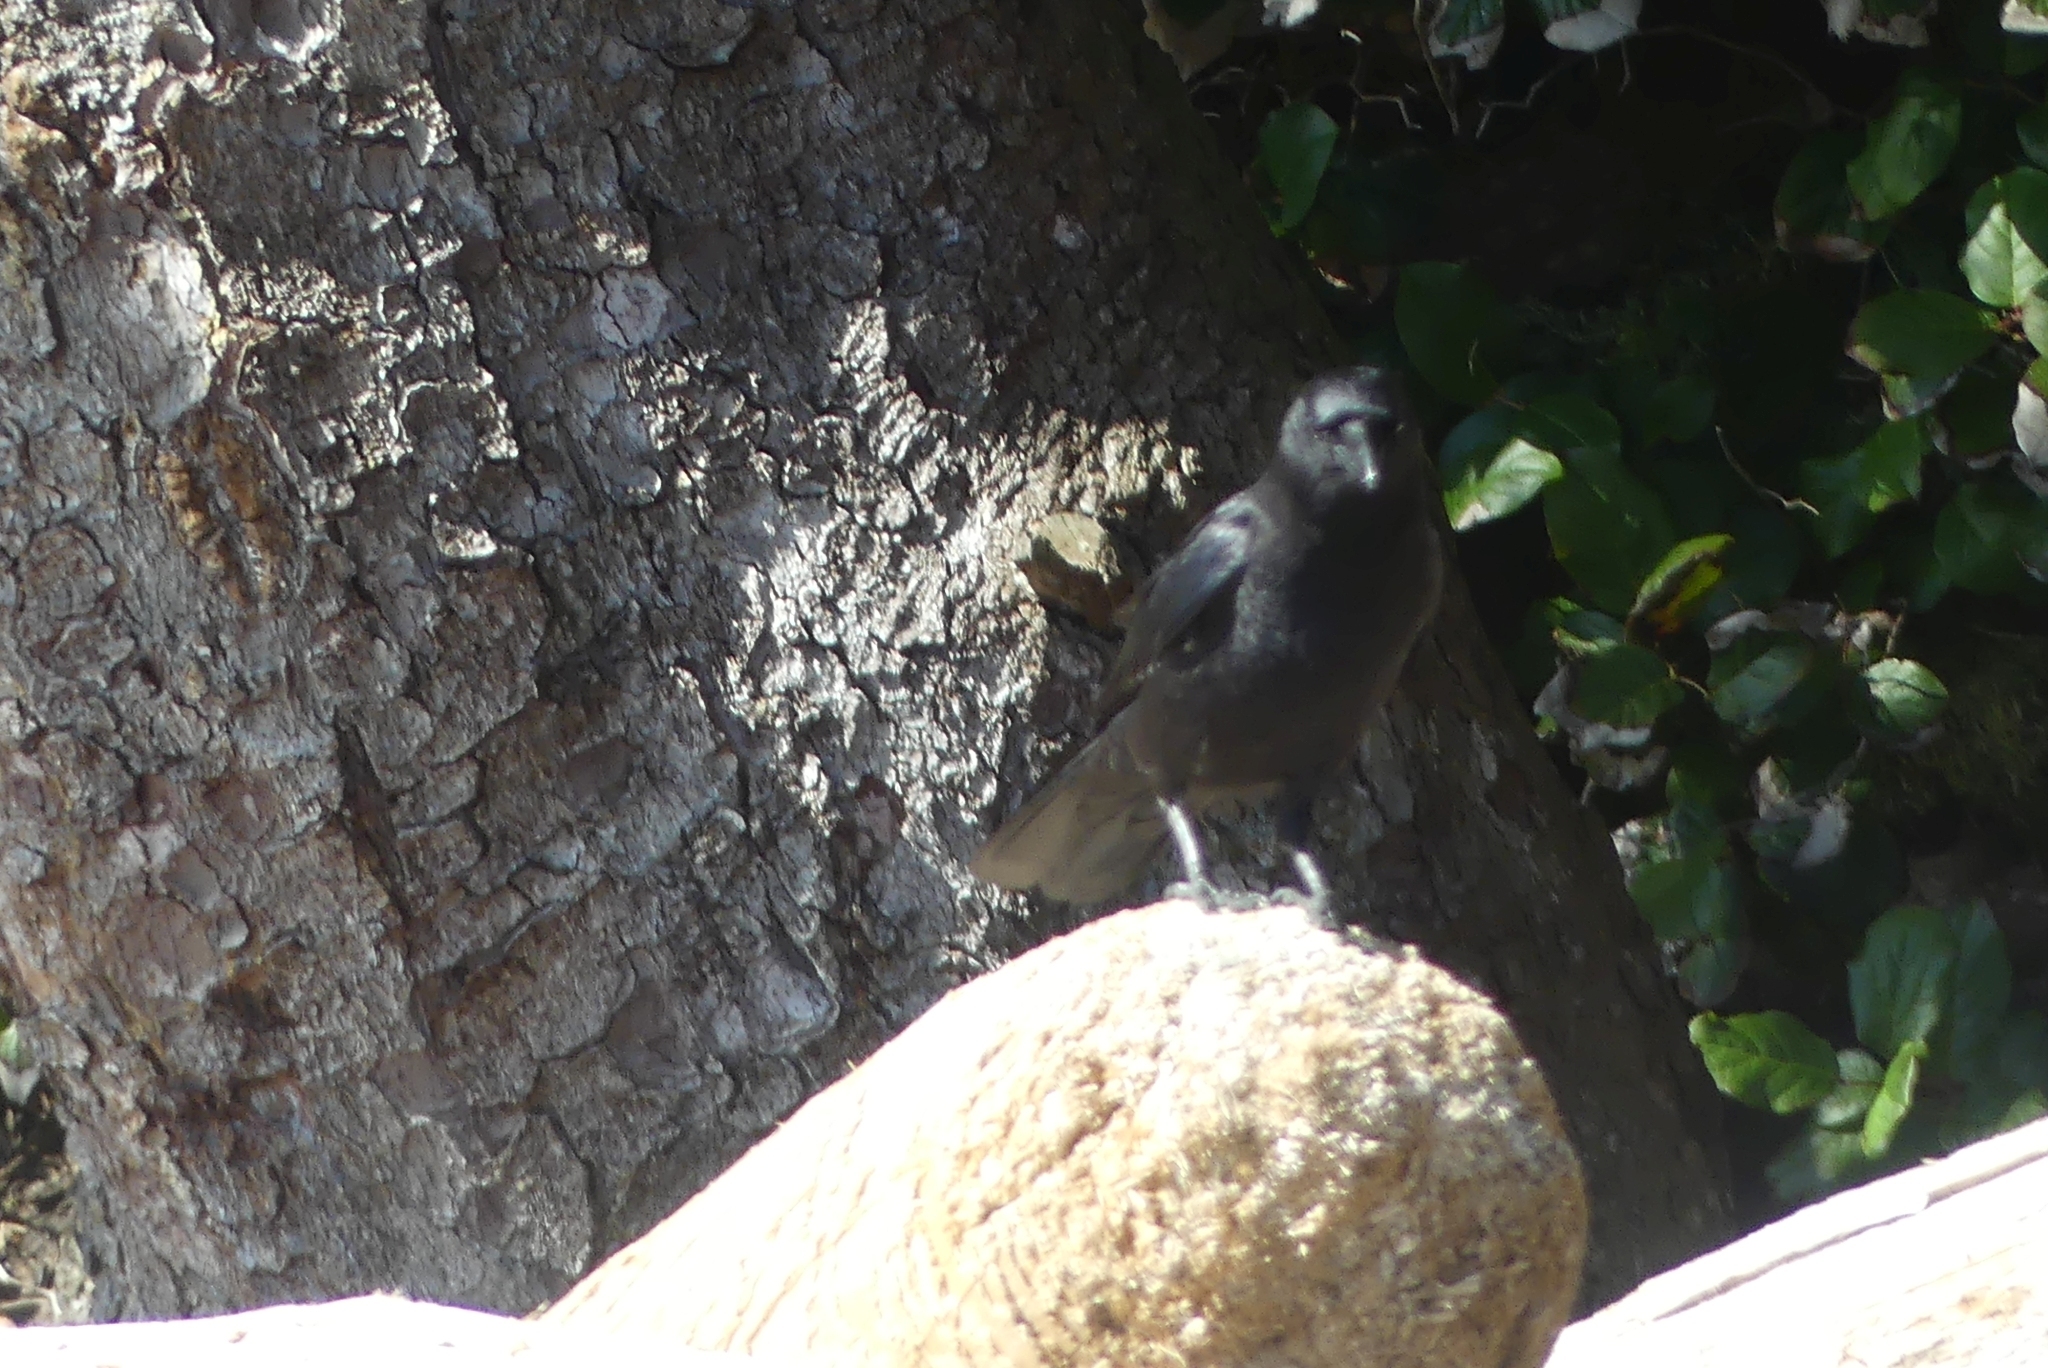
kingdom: Animalia
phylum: Chordata
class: Aves
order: Passeriformes
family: Corvidae
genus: Corvus
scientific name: Corvus brachyrhynchos
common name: American crow
